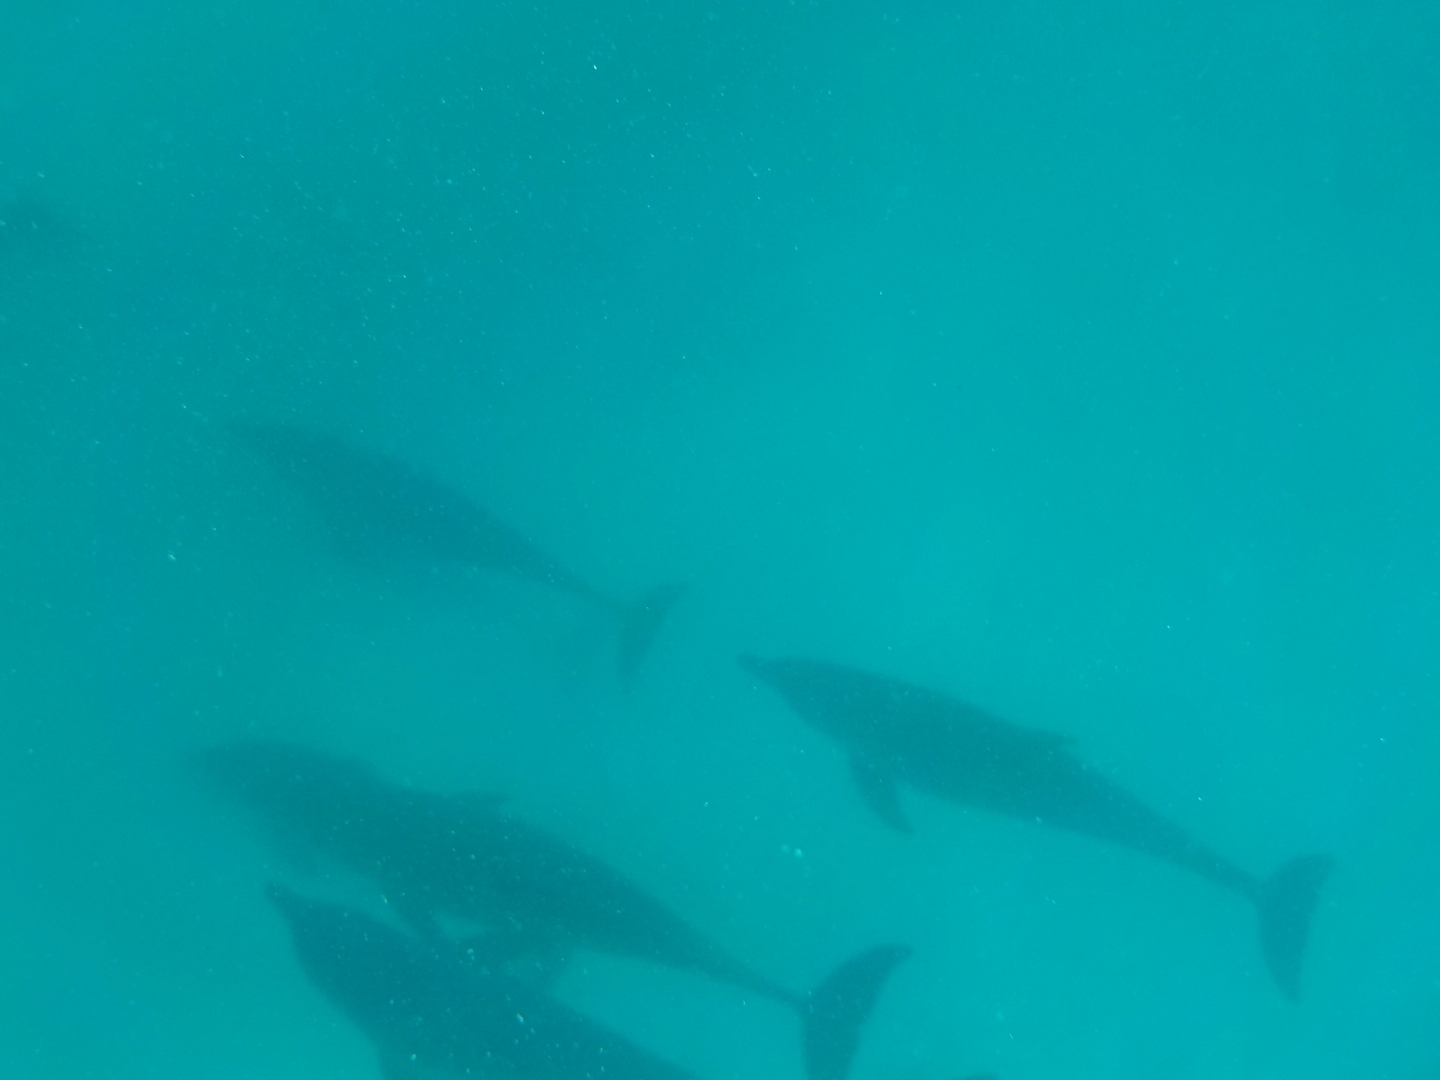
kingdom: Animalia
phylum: Chordata
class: Mammalia
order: Cetacea
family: Delphinidae
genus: Tursiops
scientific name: Tursiops aduncus
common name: Indo-pacific bottlenose dolphin
